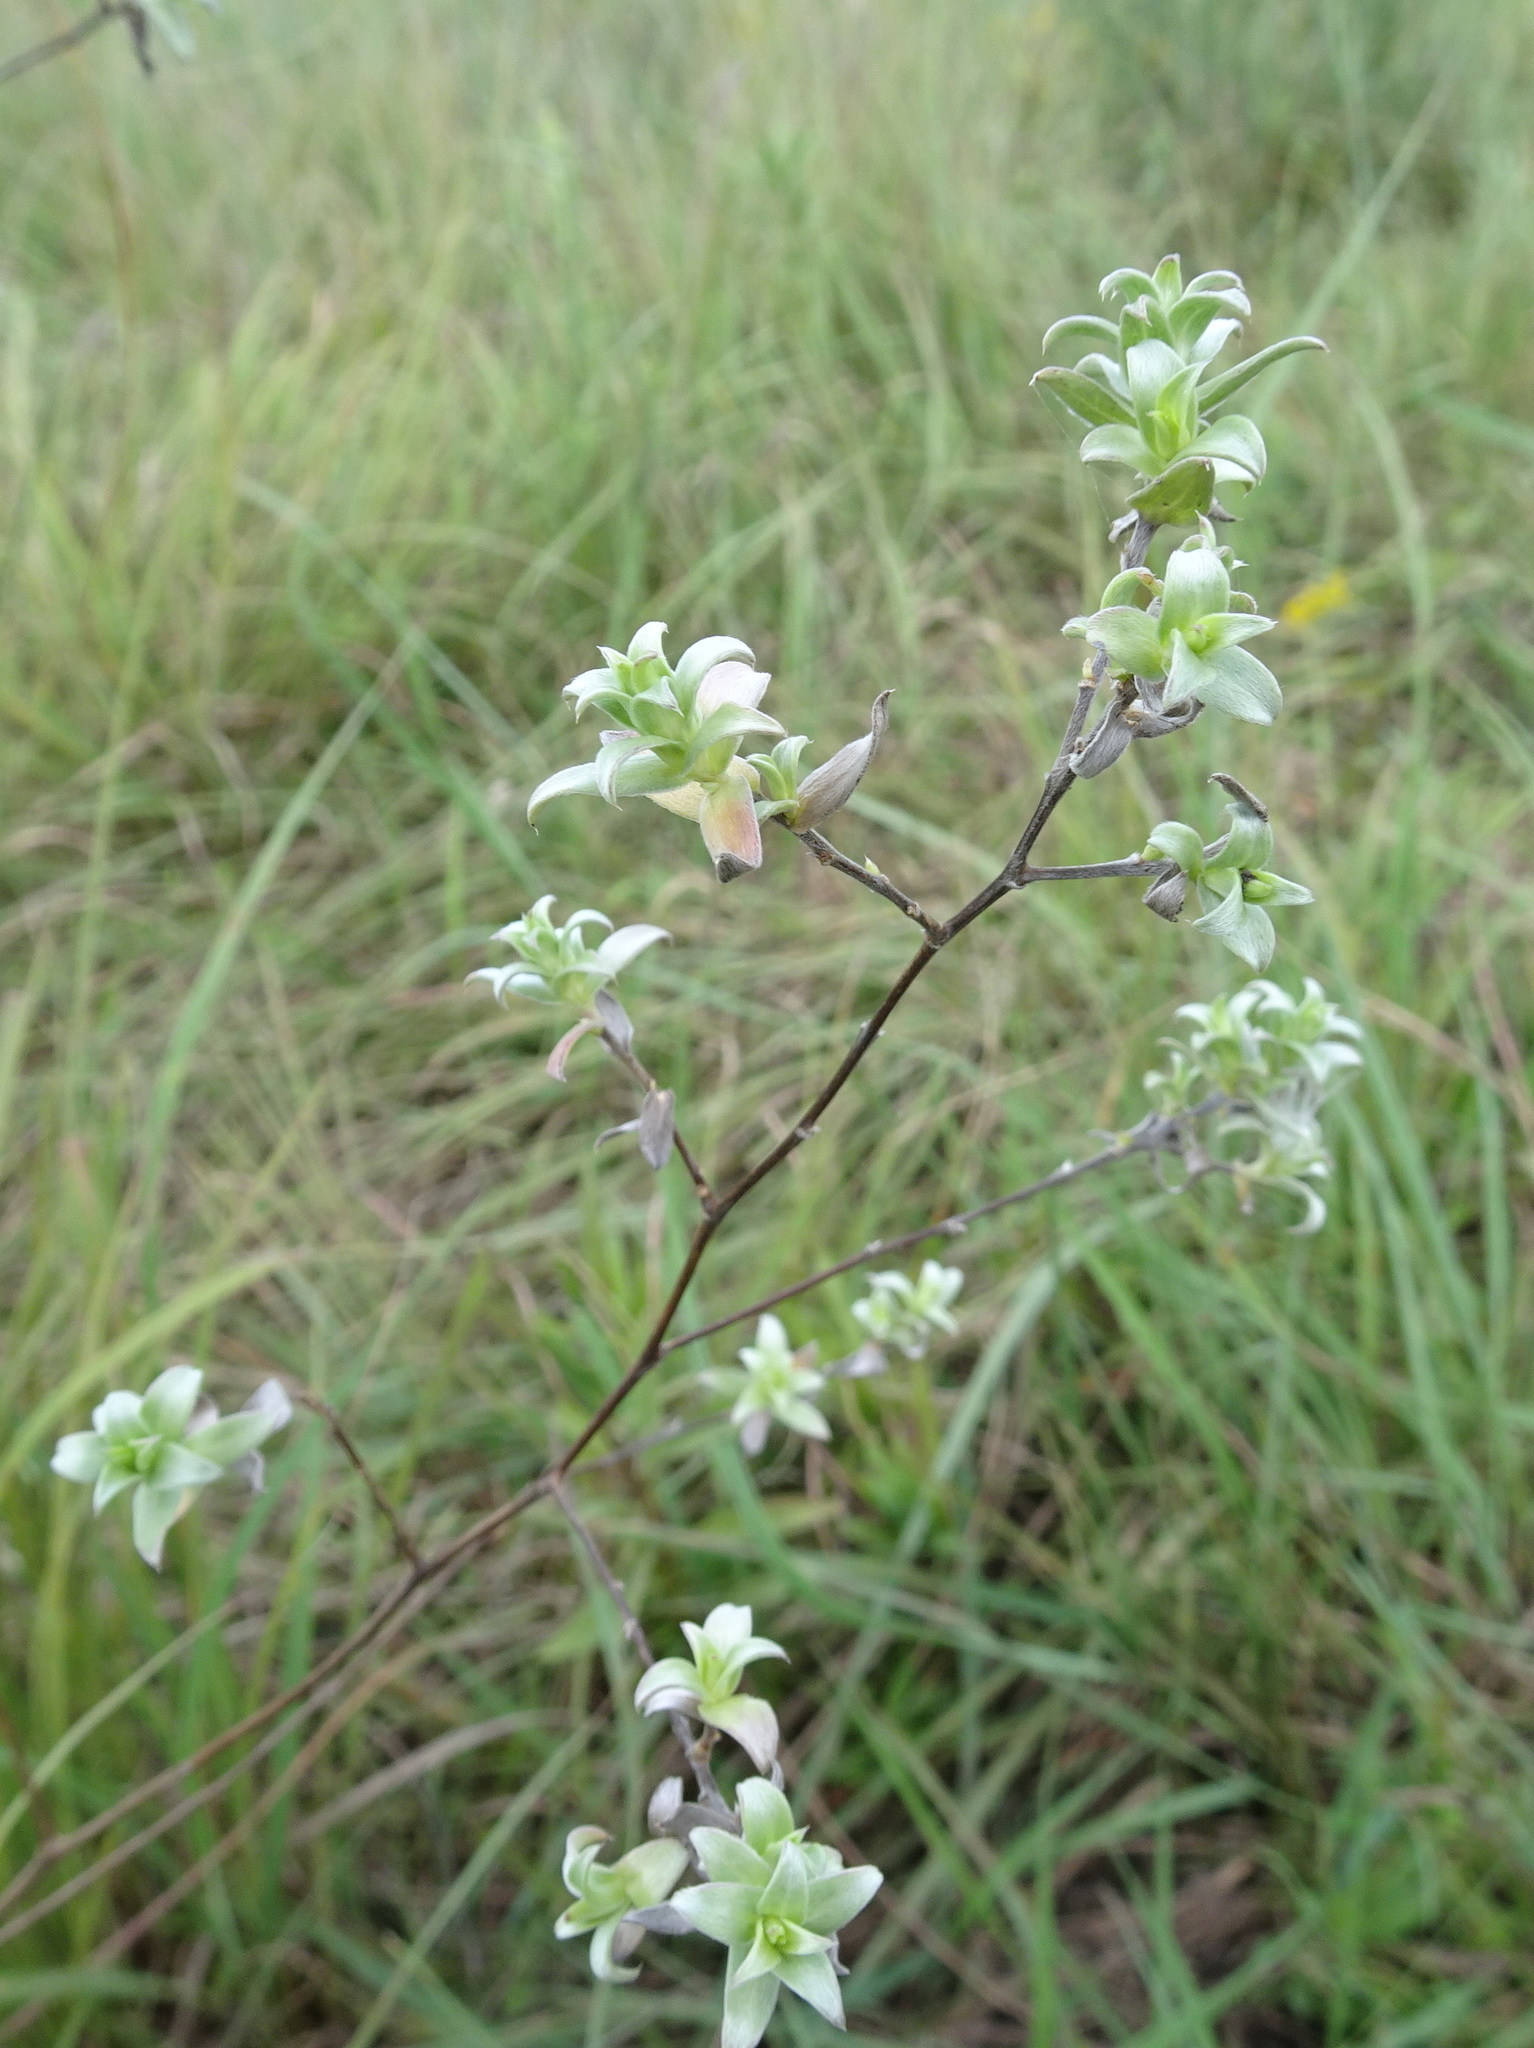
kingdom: Plantae
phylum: Tracheophyta
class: Magnoliopsida
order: Asterales
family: Asteraceae
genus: Symphyotrichum
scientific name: Symphyotrichum sericeum
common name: Silky aster
